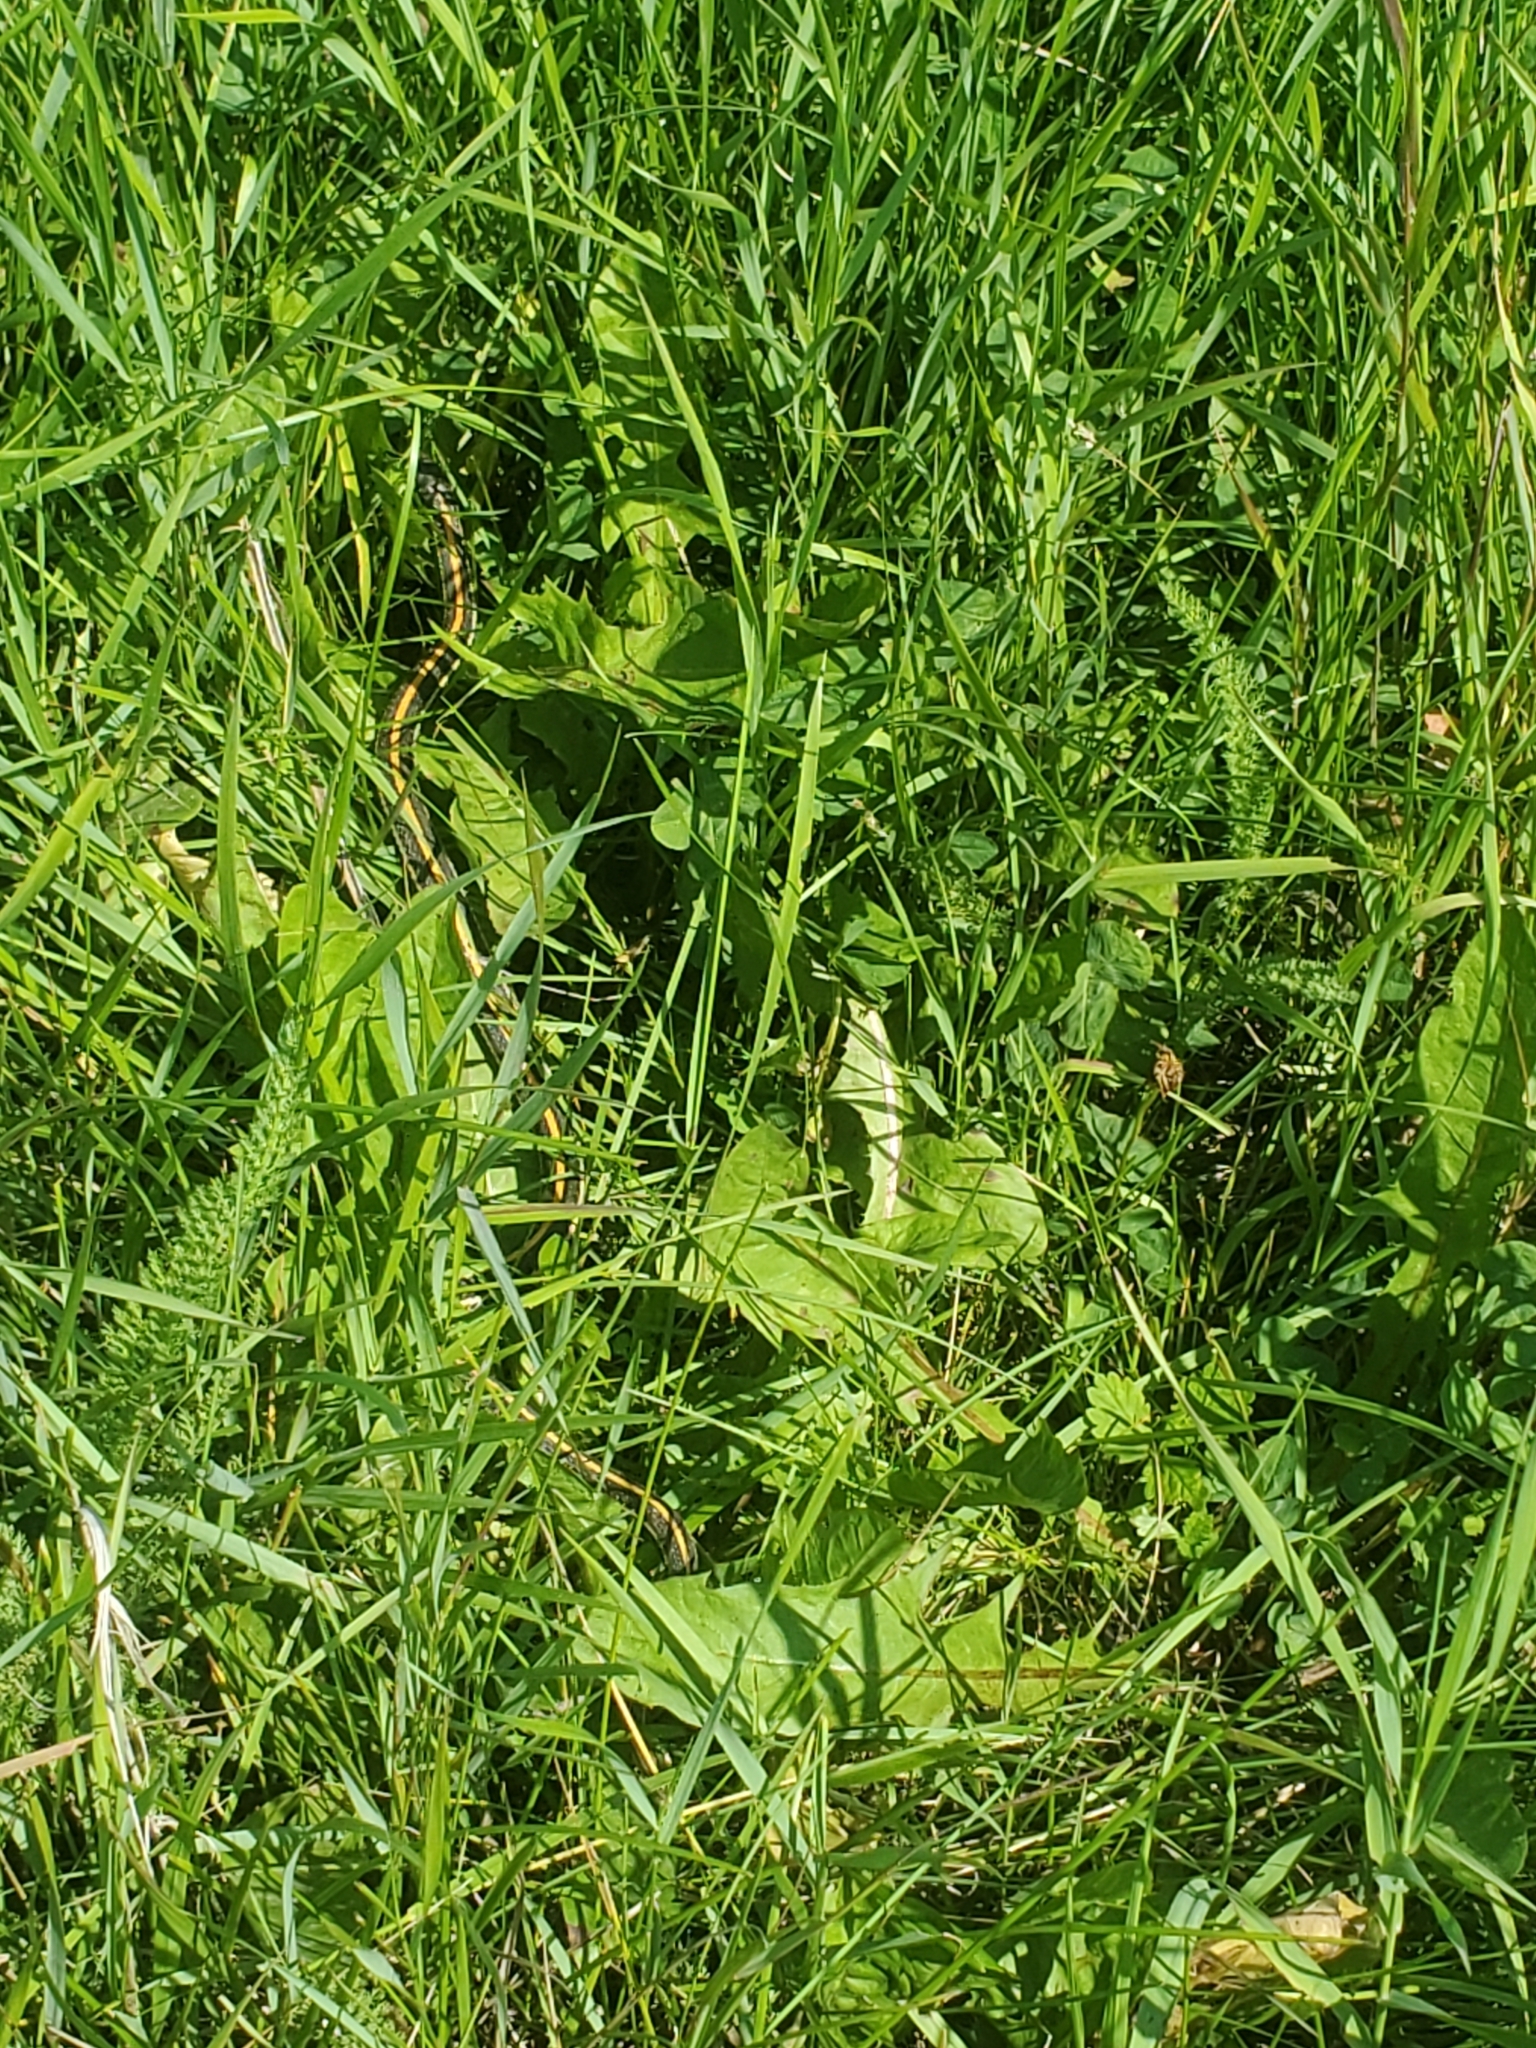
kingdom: Animalia
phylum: Chordata
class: Squamata
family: Colubridae
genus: Thamnophis
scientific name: Thamnophis radix
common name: Plains garter snake
